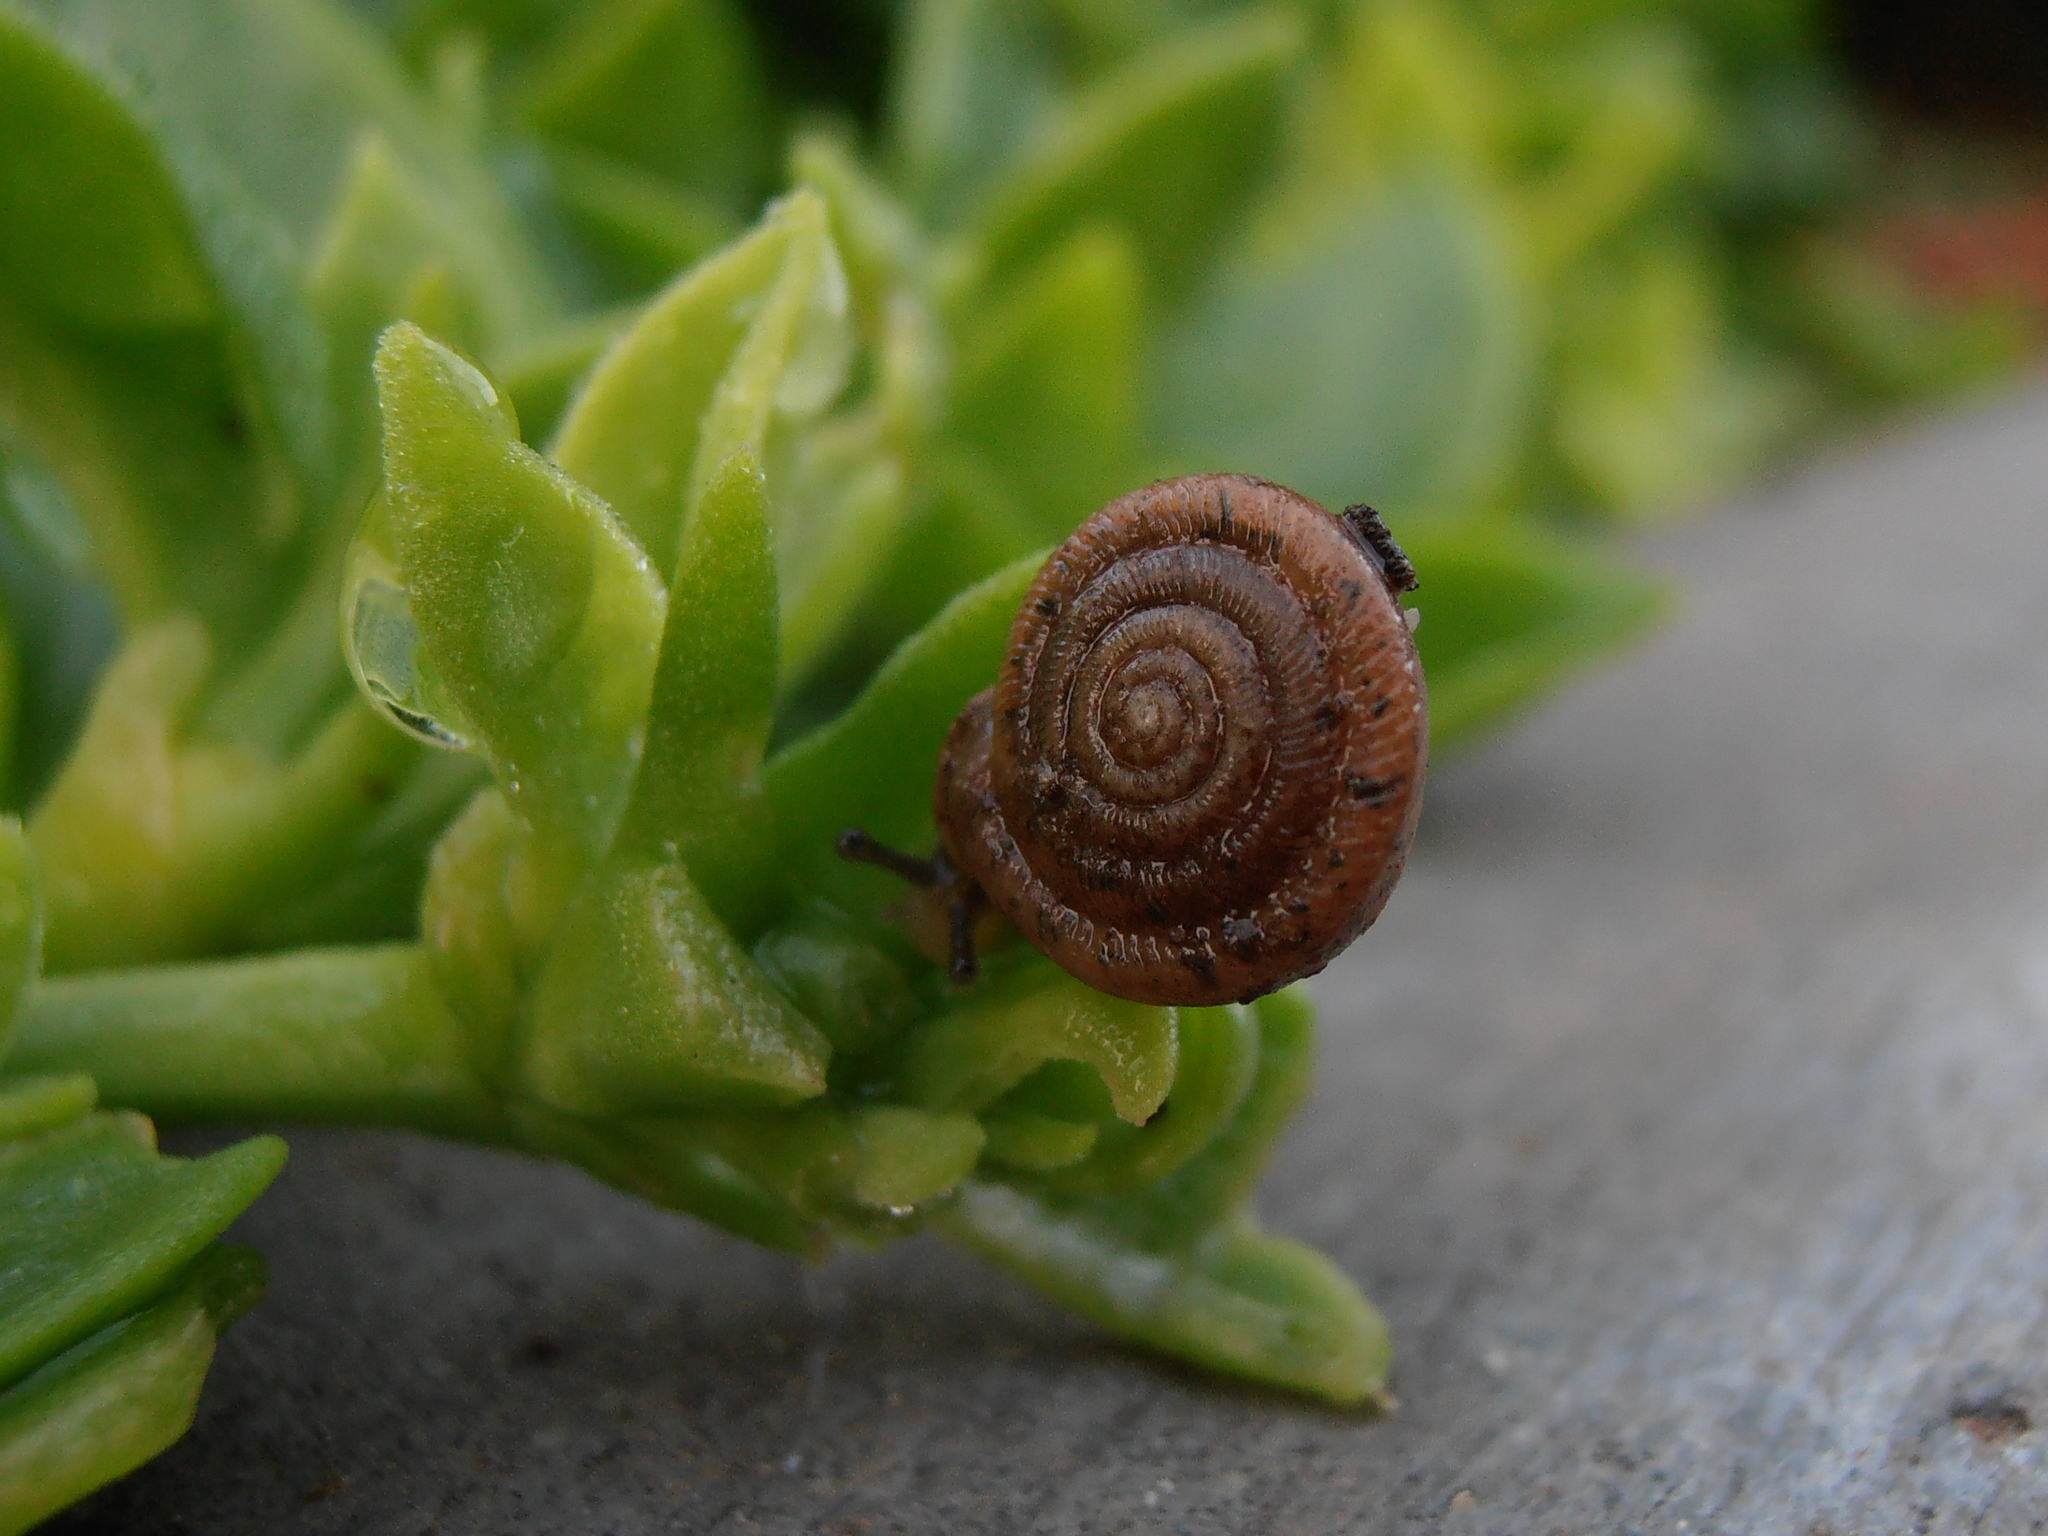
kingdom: Animalia
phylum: Mollusca
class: Gastropoda
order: Stylommatophora
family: Polygyridae
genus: Polygyra
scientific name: Polygyra cereolus
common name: Southern flatcone snail
